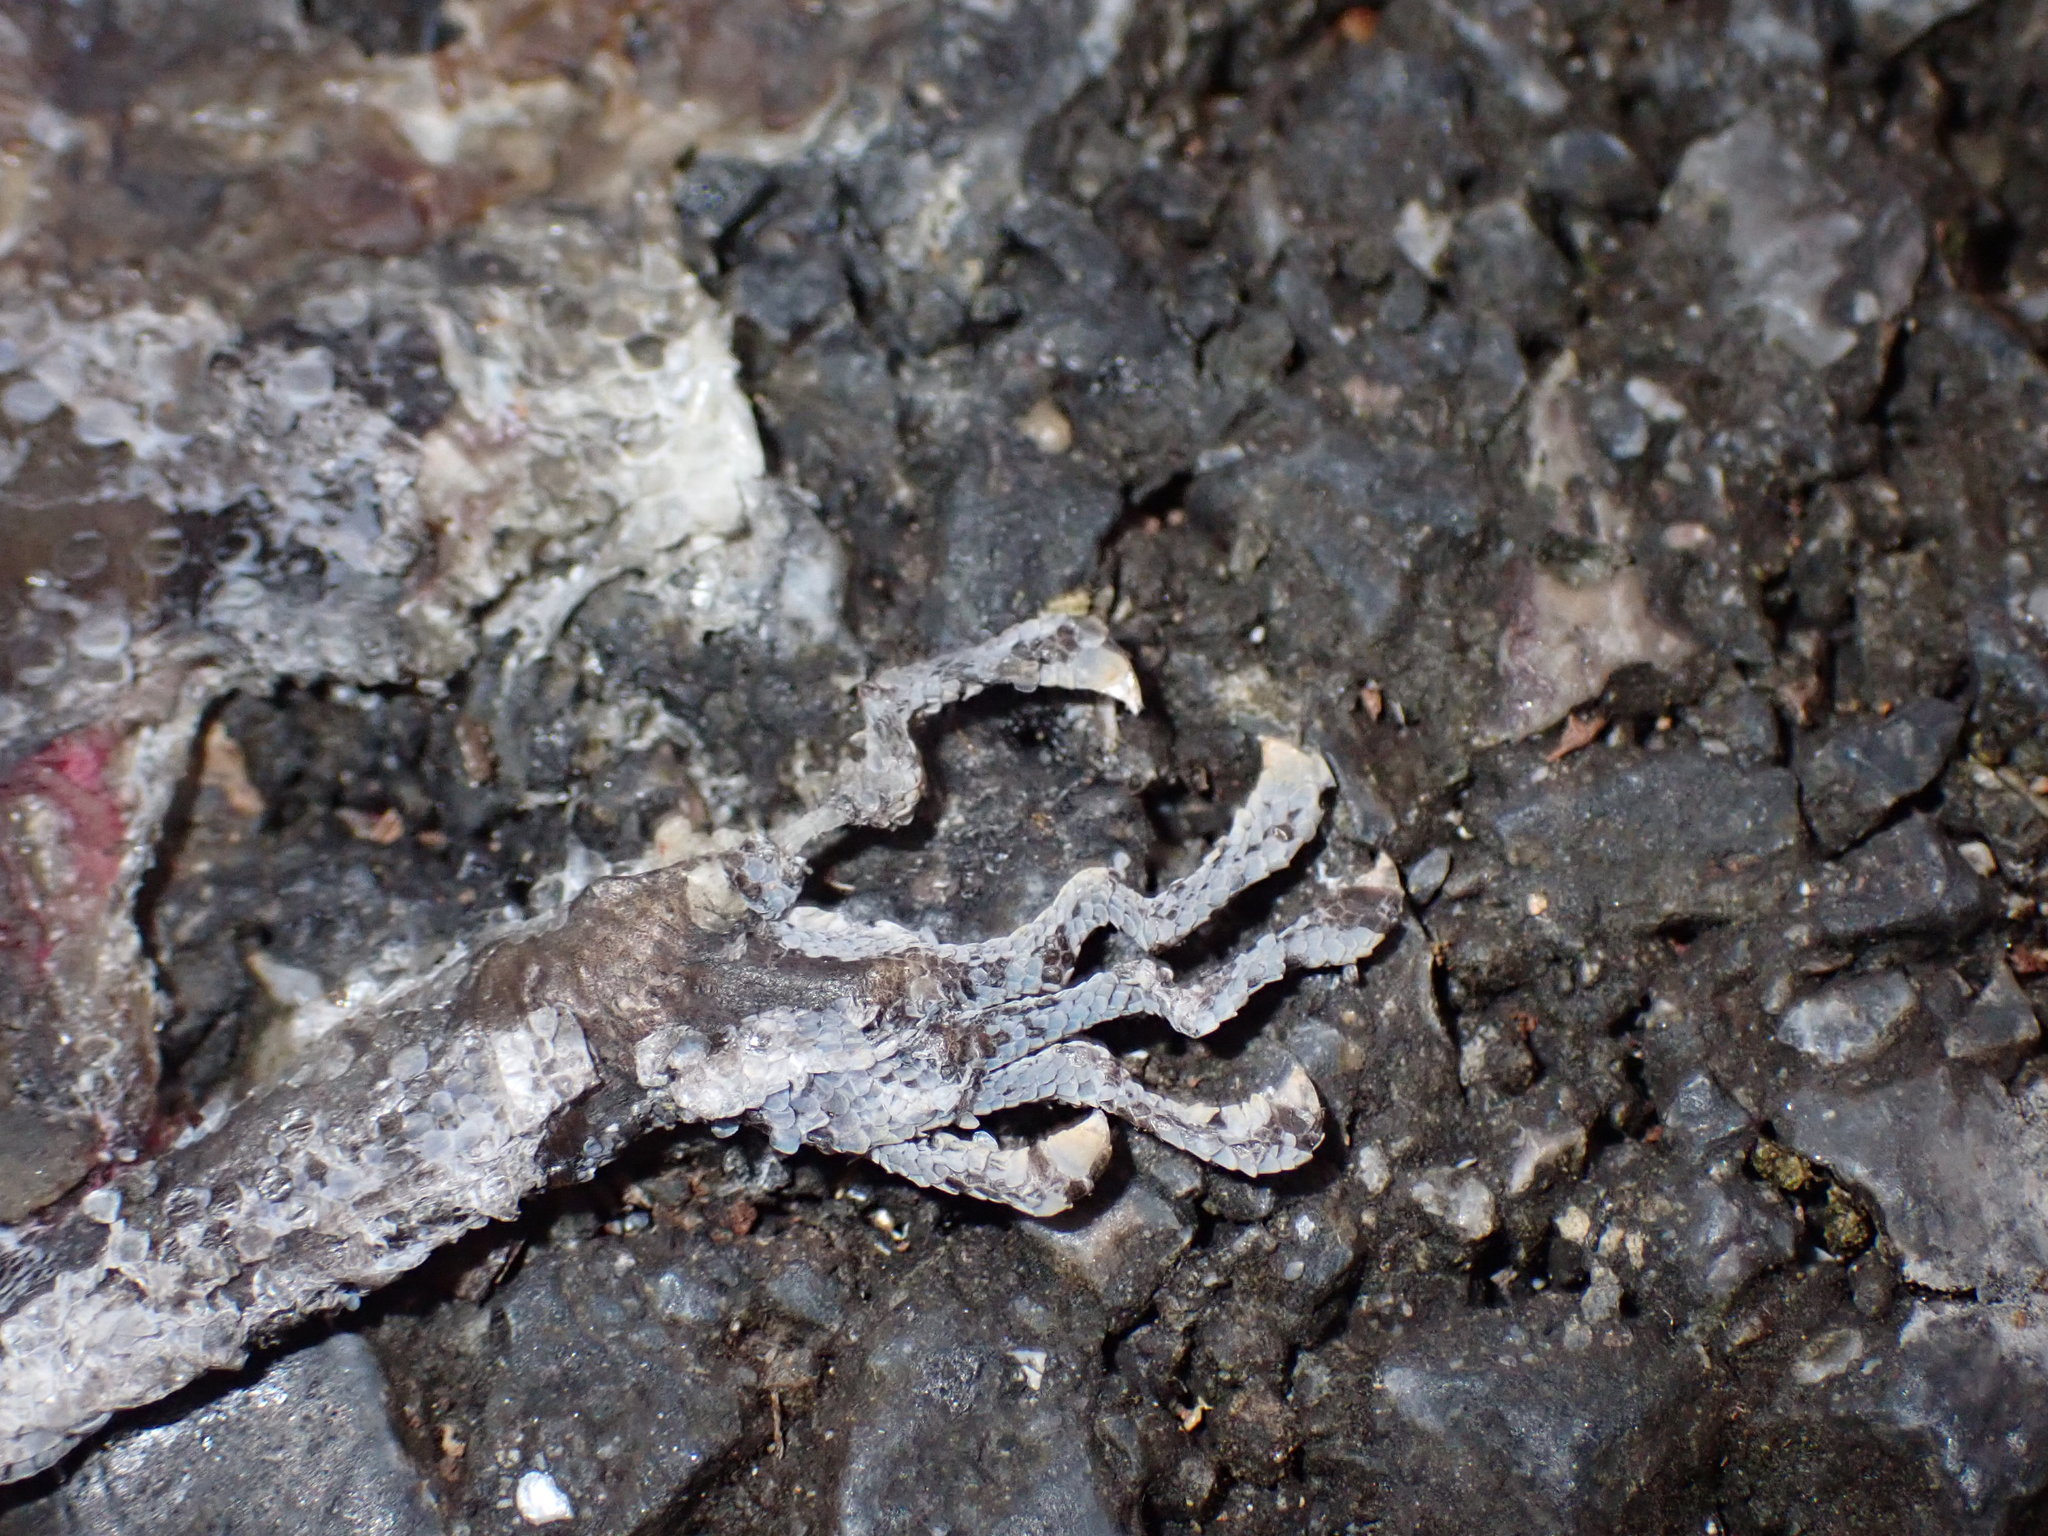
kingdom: Animalia
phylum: Chordata
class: Squamata
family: Gekkonidae
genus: Cyrtodactylus
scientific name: Cyrtodactylus lekaguli
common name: Tuk-kai boonsong bent-toed gecko
